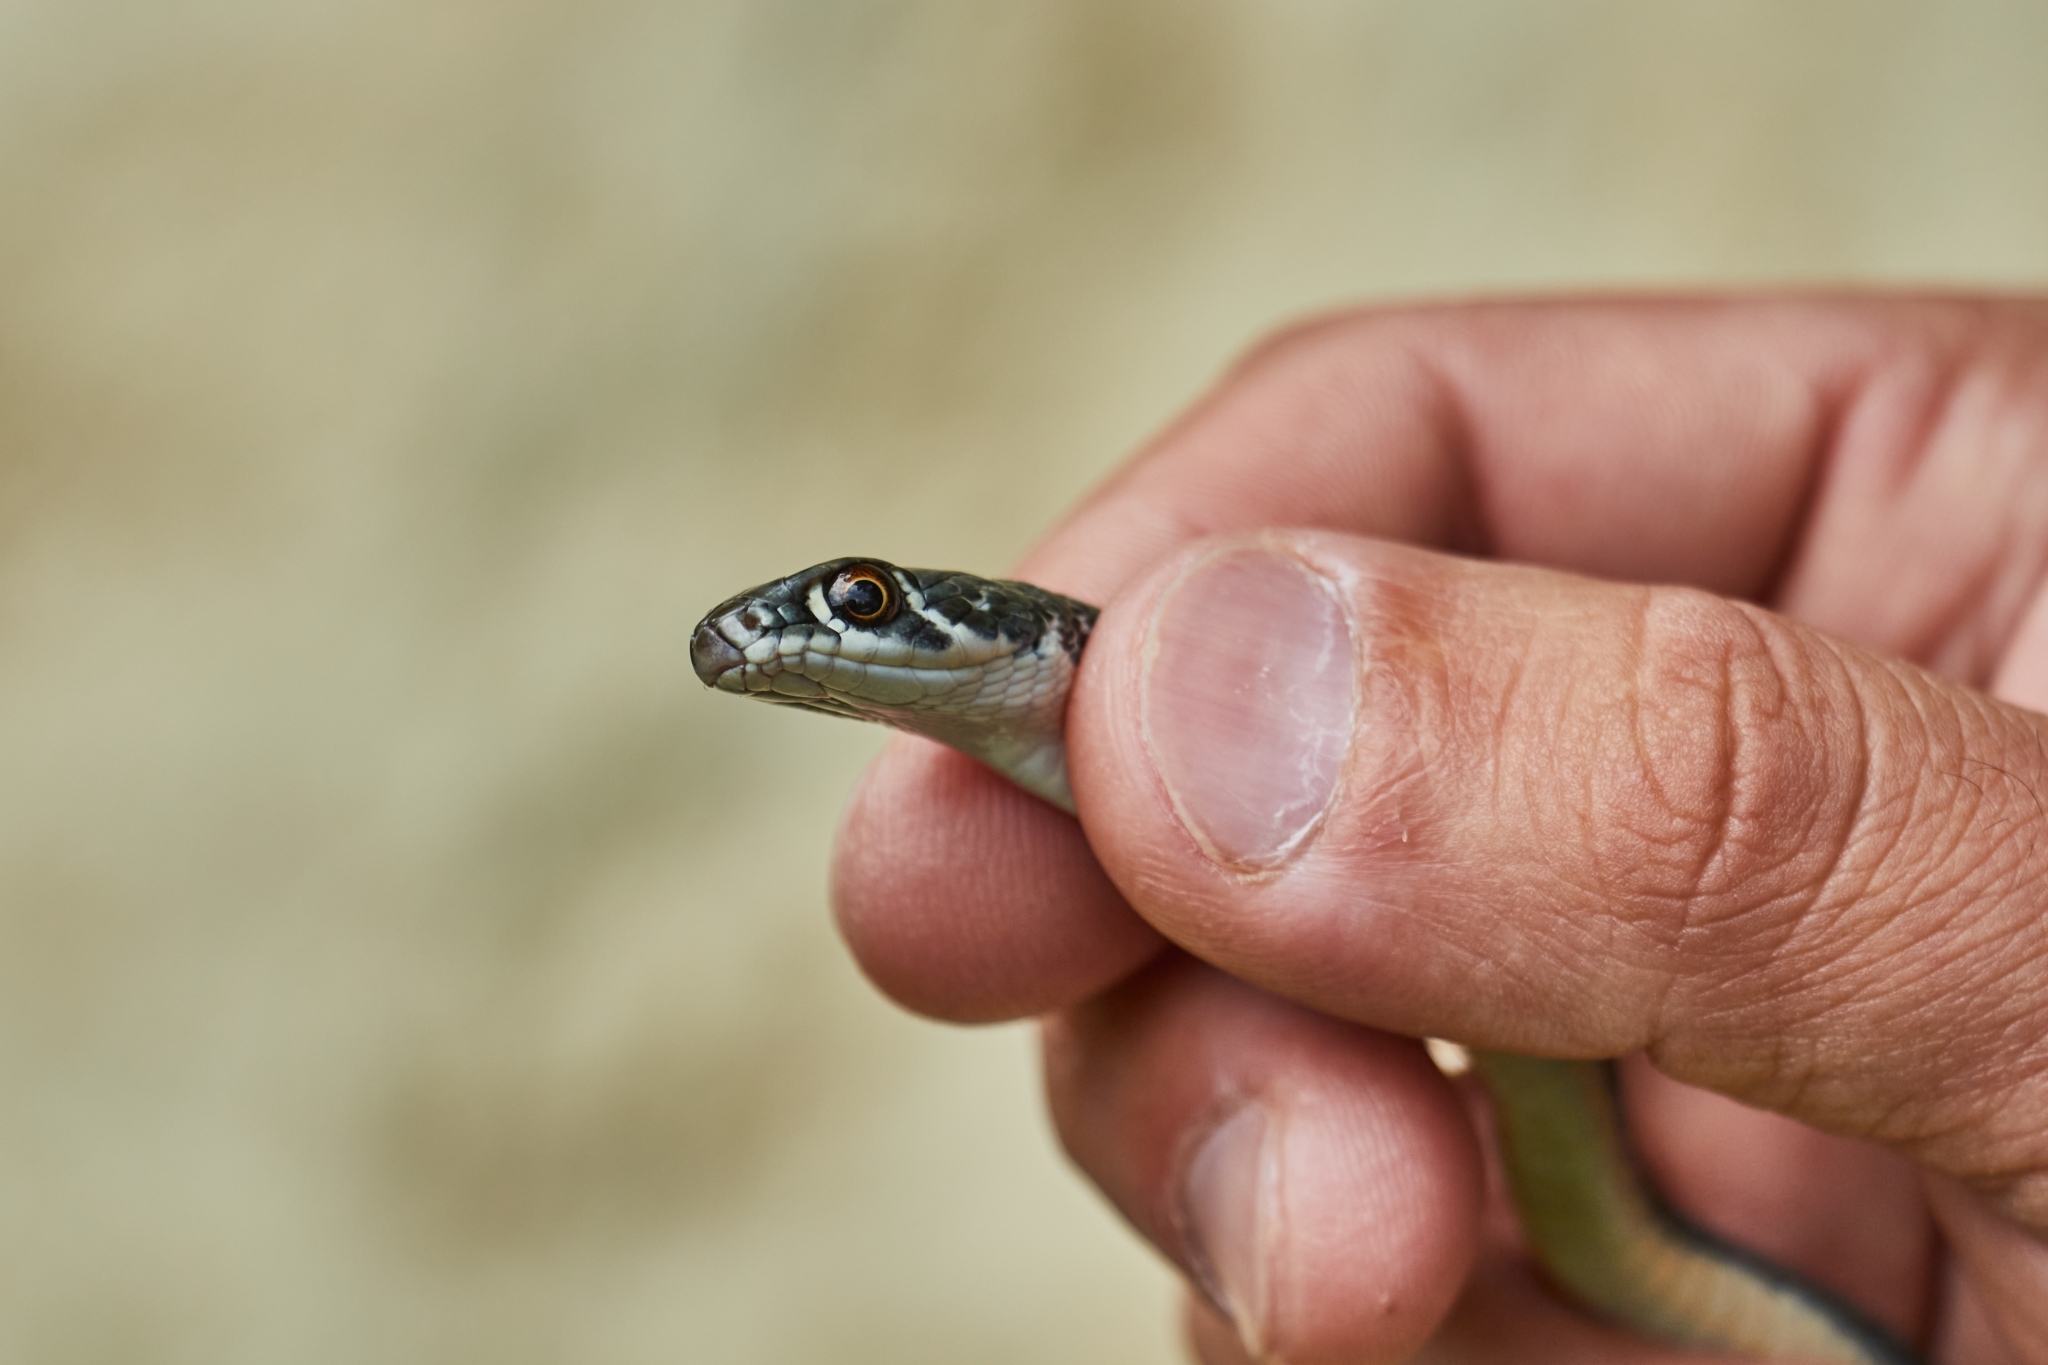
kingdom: Animalia
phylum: Chordata
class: Squamata
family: Colubridae
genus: Platyceps
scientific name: Platyceps najadum
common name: Dahl's whip snake
